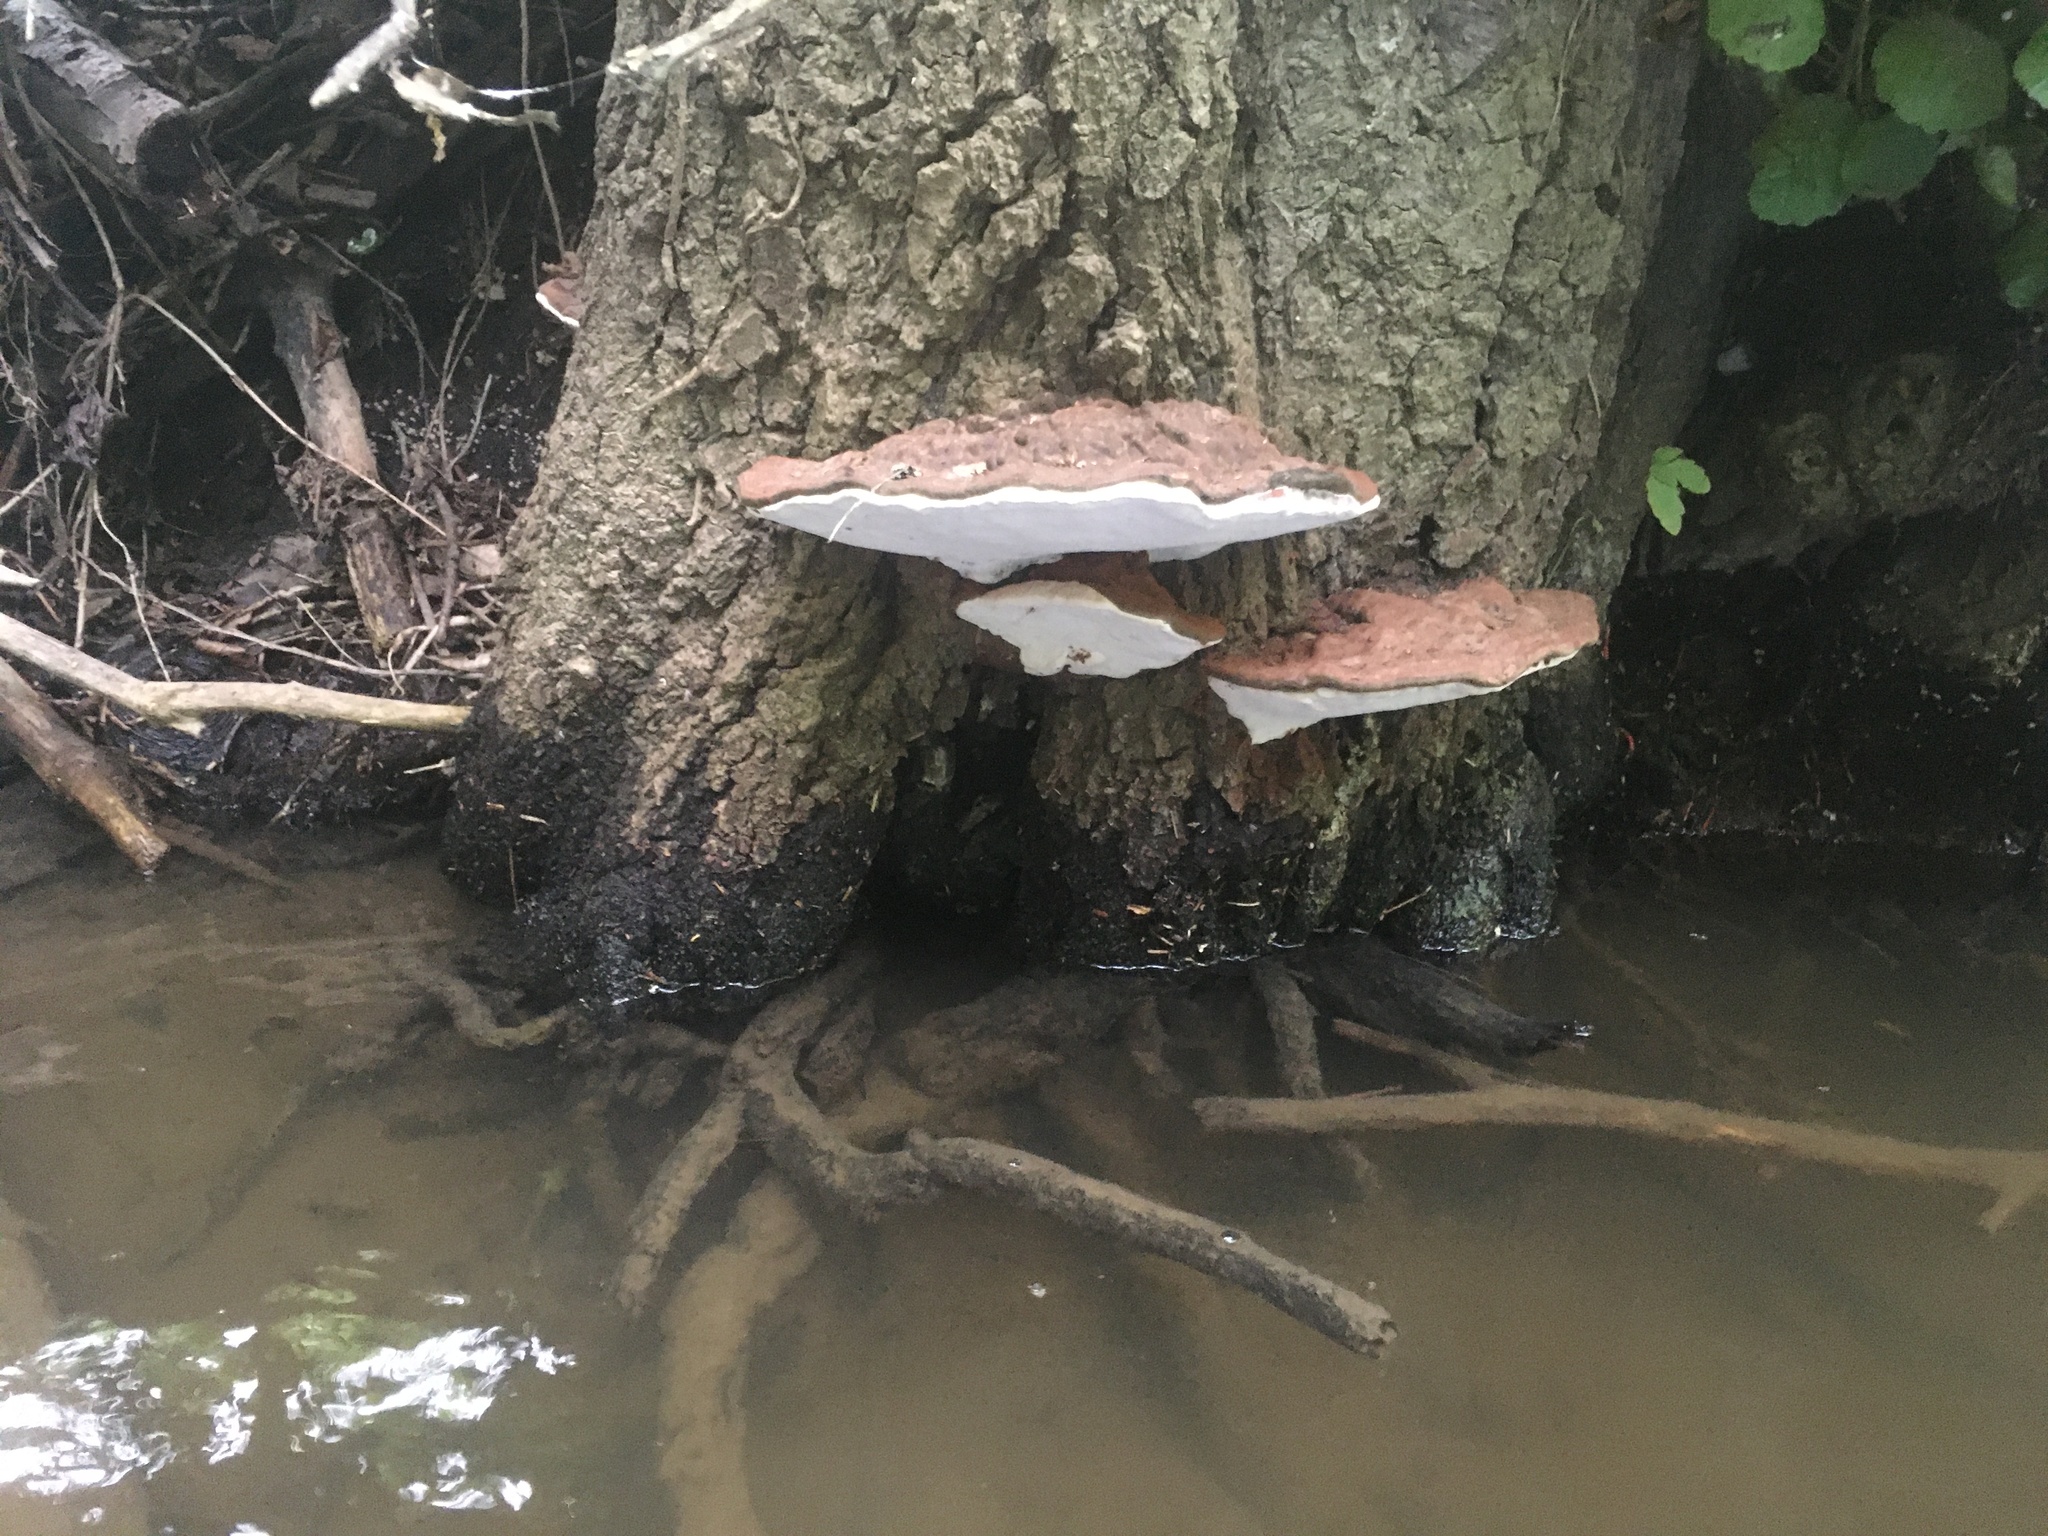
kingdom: Fungi
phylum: Basidiomycota
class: Agaricomycetes
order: Polyporales
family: Polyporaceae
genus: Ganoderma
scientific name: Ganoderma applanatum
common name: Artist's bracket
